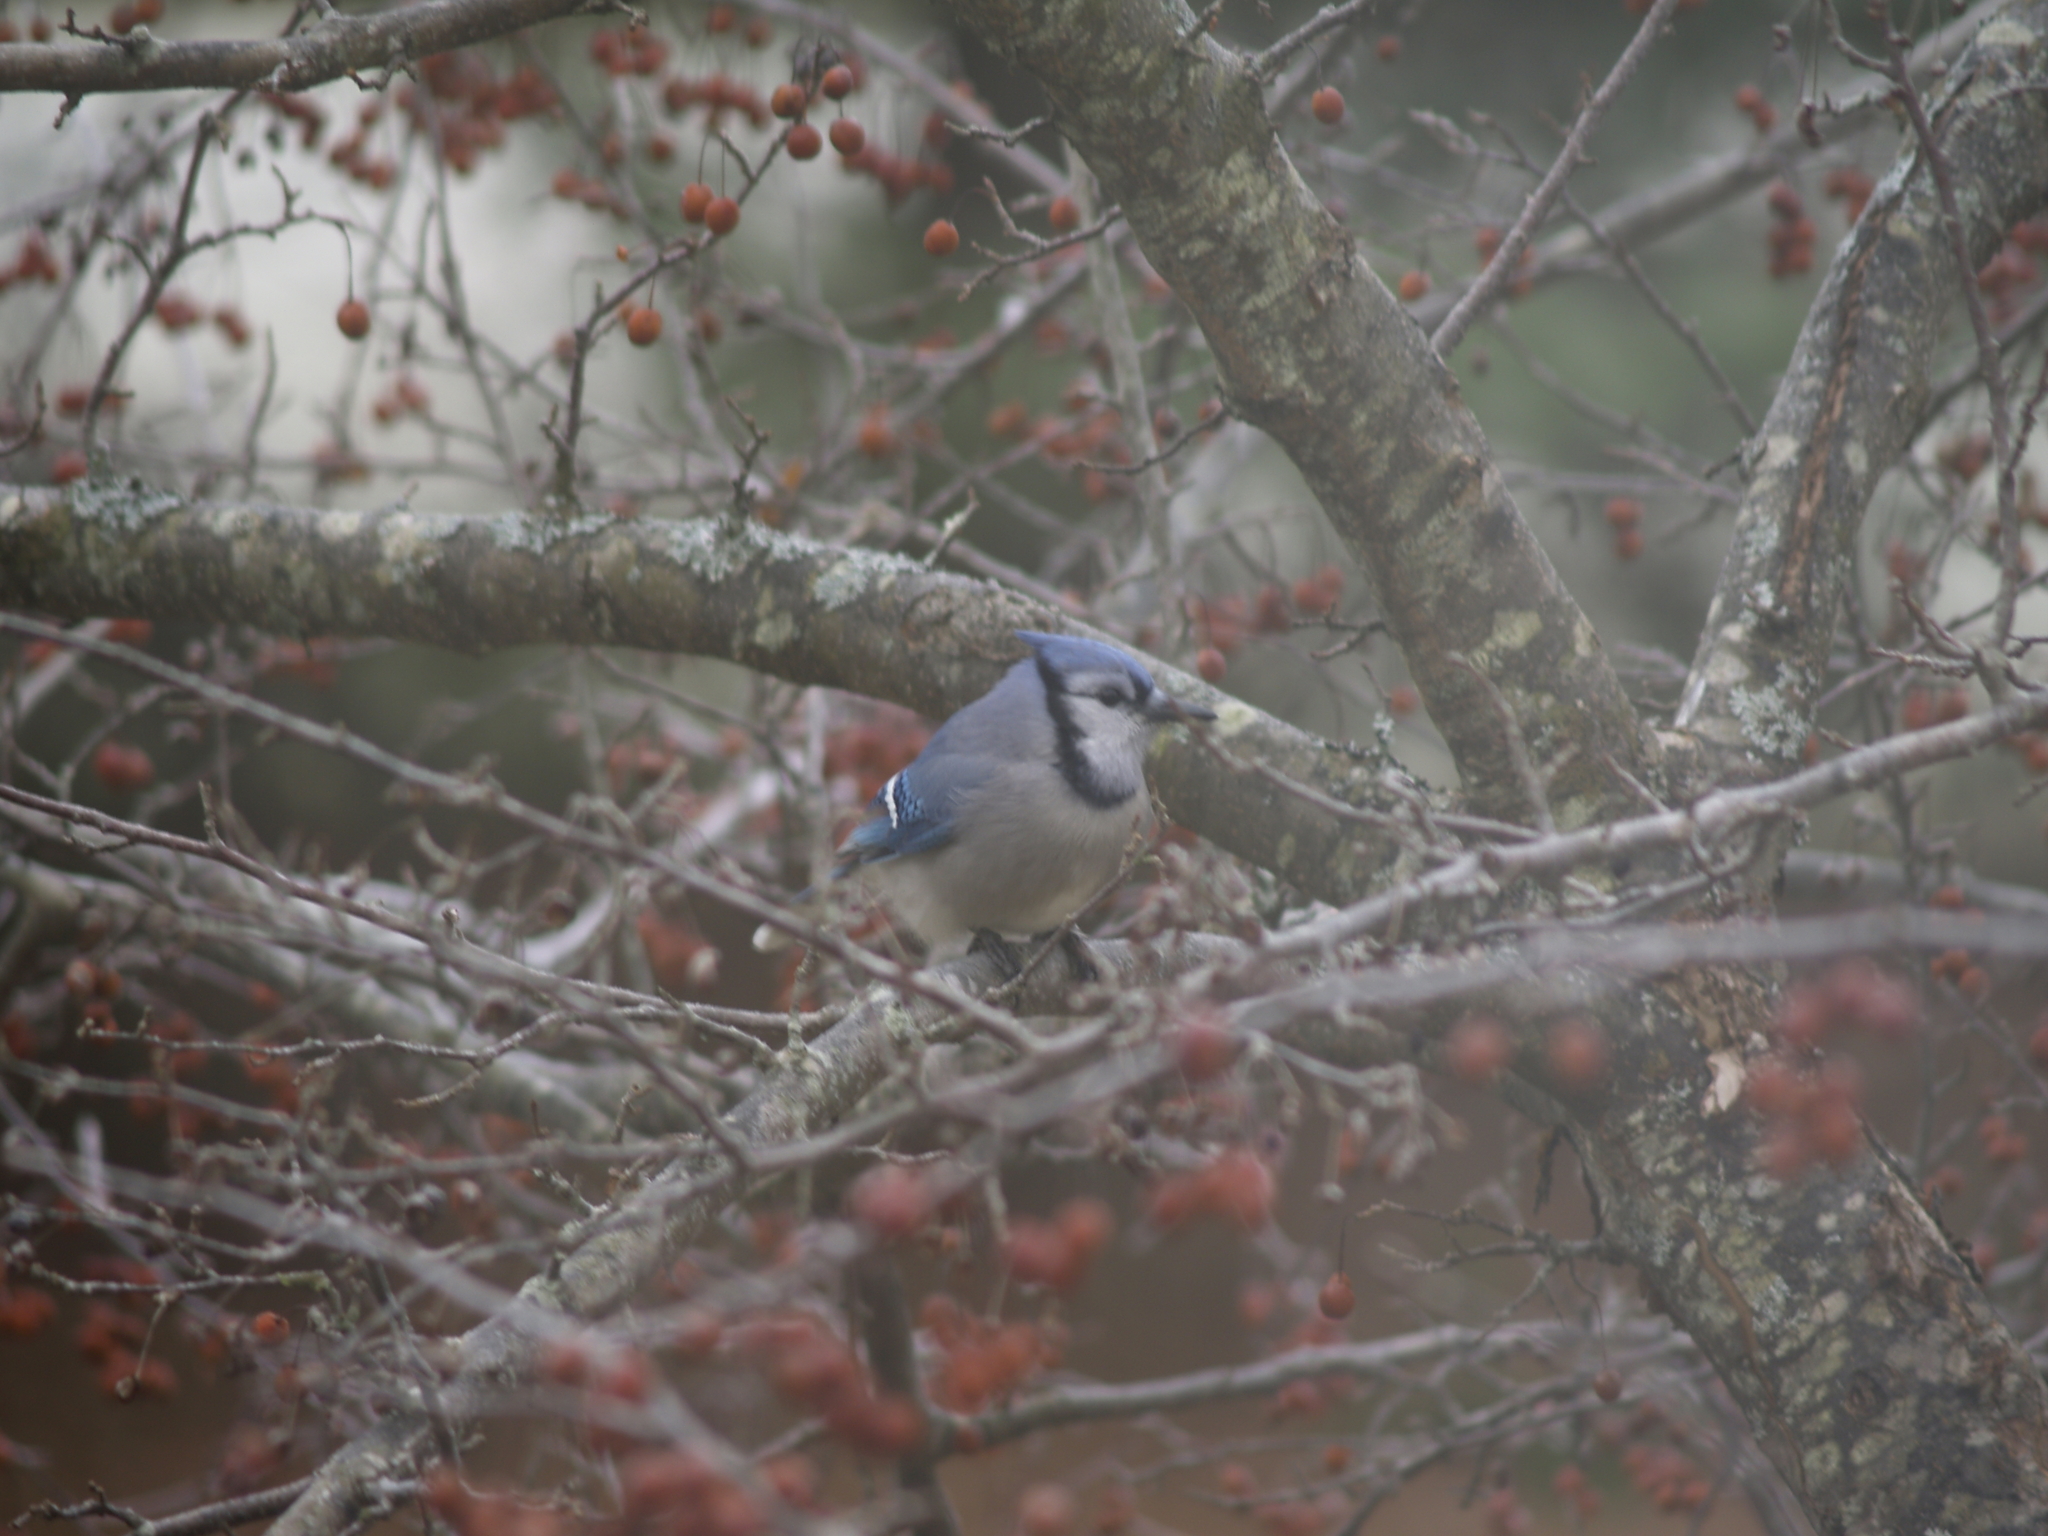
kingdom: Animalia
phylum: Chordata
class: Aves
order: Passeriformes
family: Corvidae
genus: Cyanocitta
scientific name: Cyanocitta cristata
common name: Blue jay
